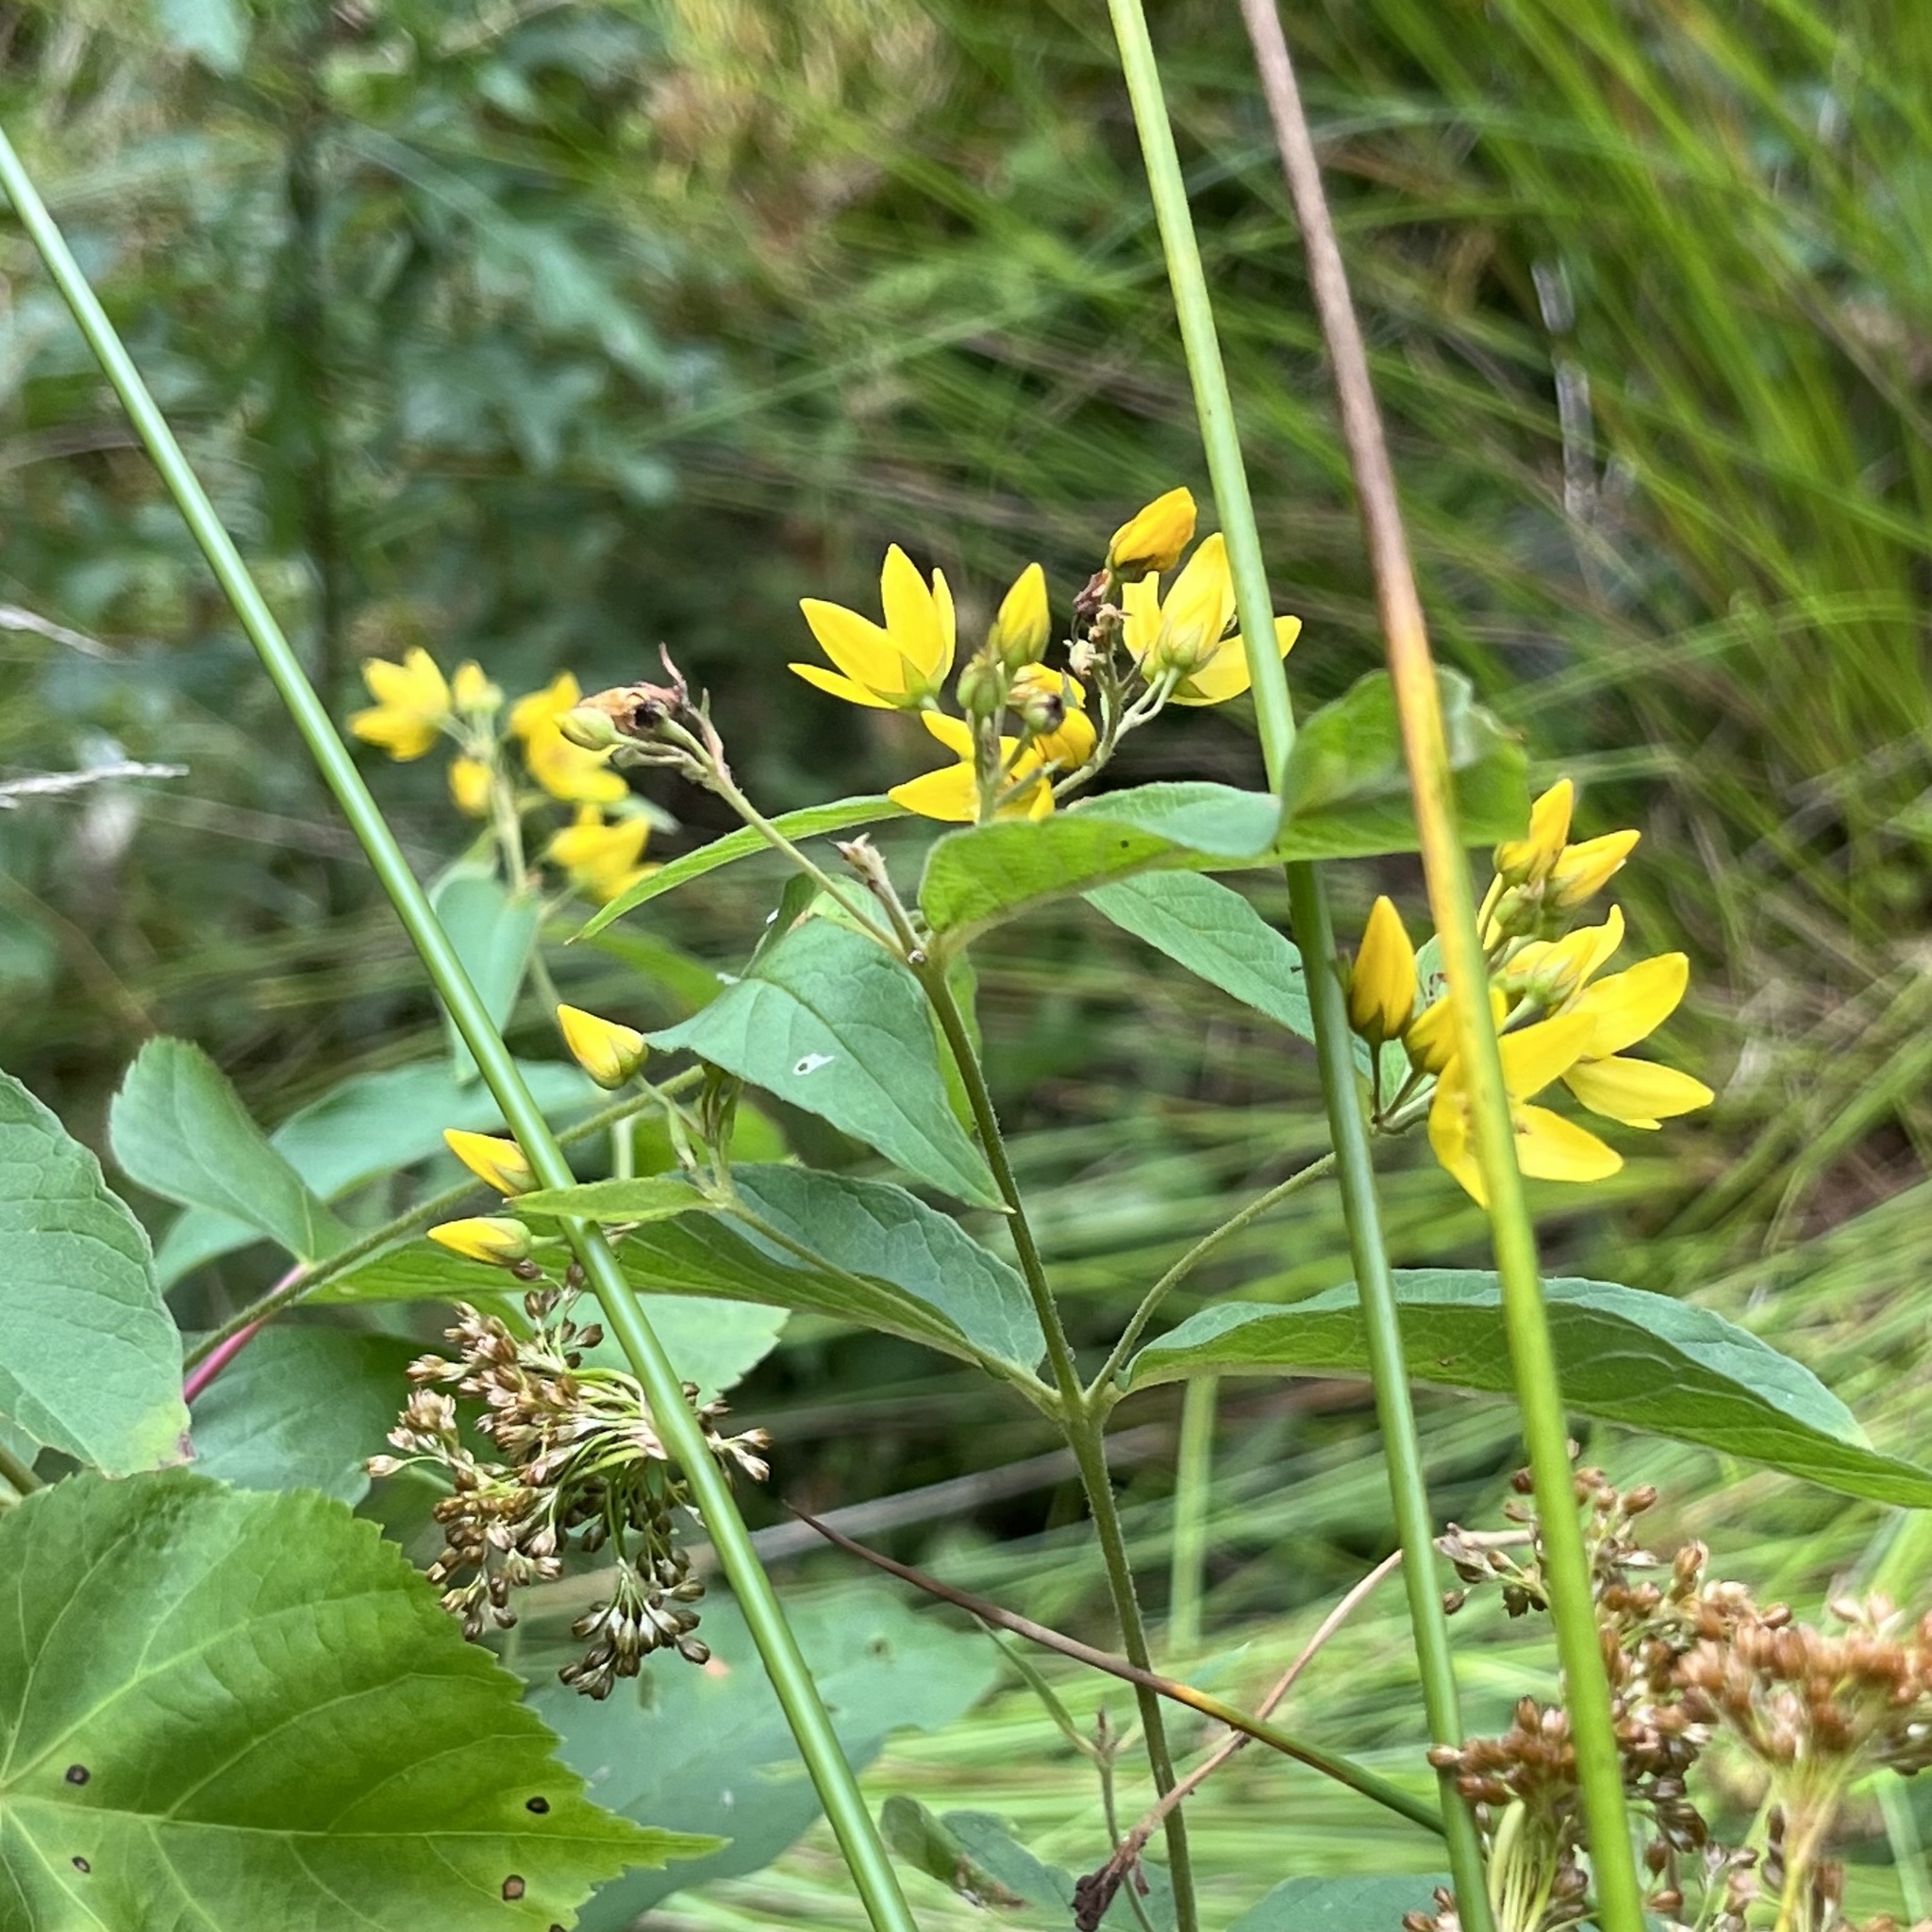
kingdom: Plantae
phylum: Tracheophyta
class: Magnoliopsida
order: Ericales
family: Primulaceae
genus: Lysimachia
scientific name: Lysimachia vulgaris
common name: Yellow loosestrife
